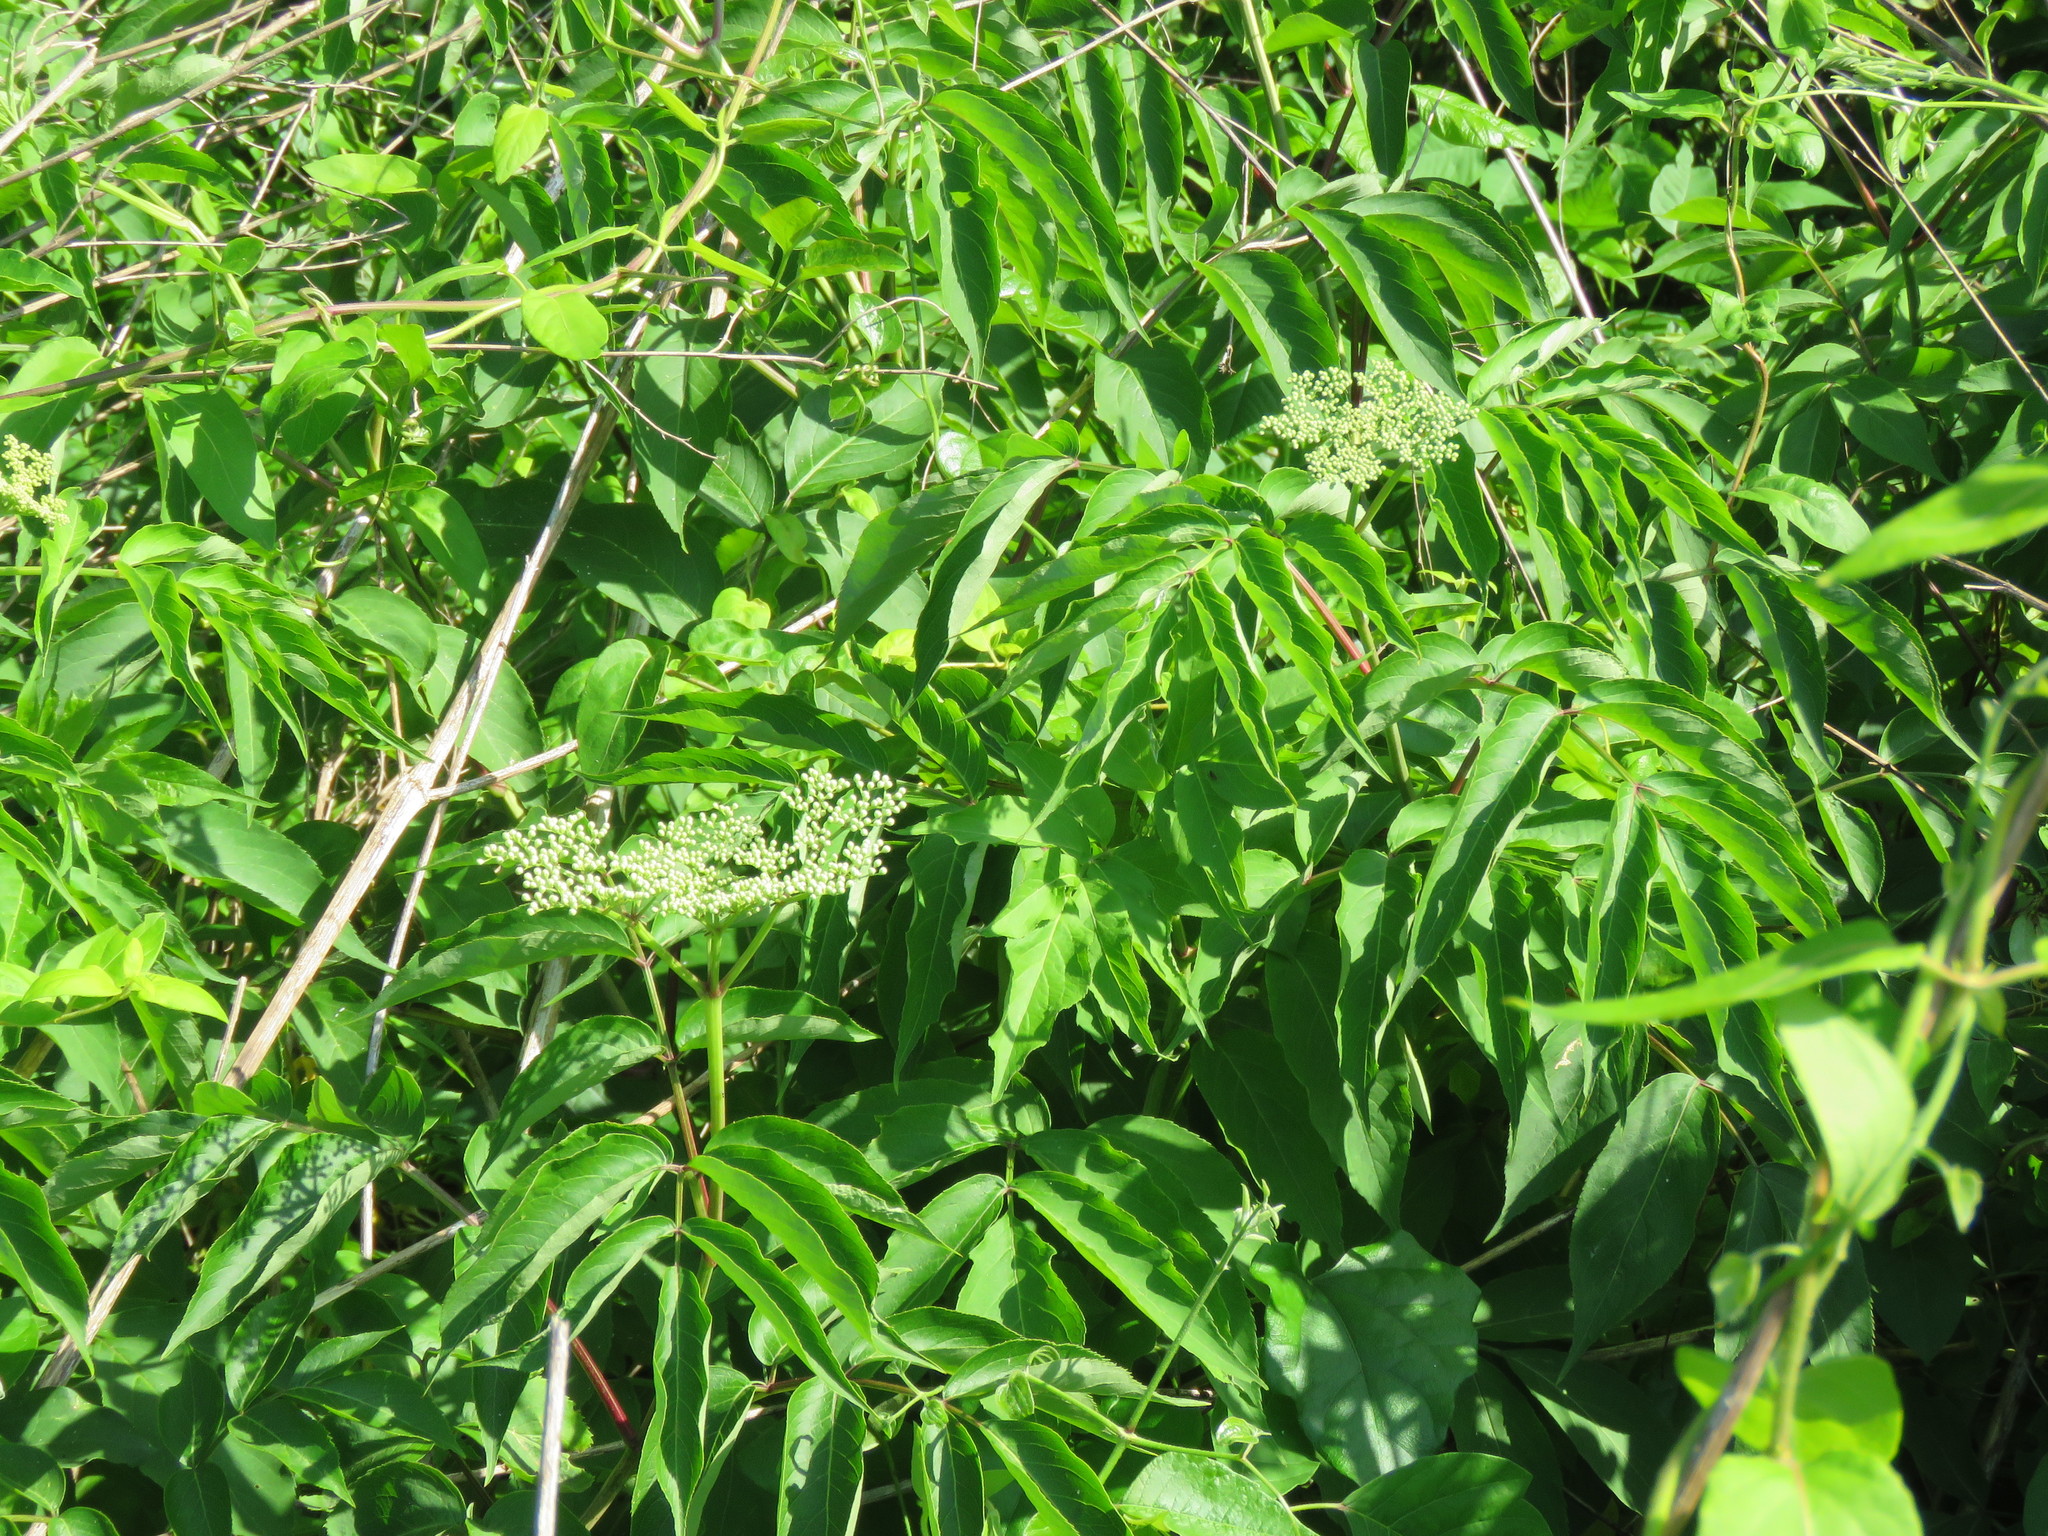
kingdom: Plantae
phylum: Tracheophyta
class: Magnoliopsida
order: Dipsacales
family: Viburnaceae
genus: Sambucus
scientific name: Sambucus canadensis
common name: American elder
